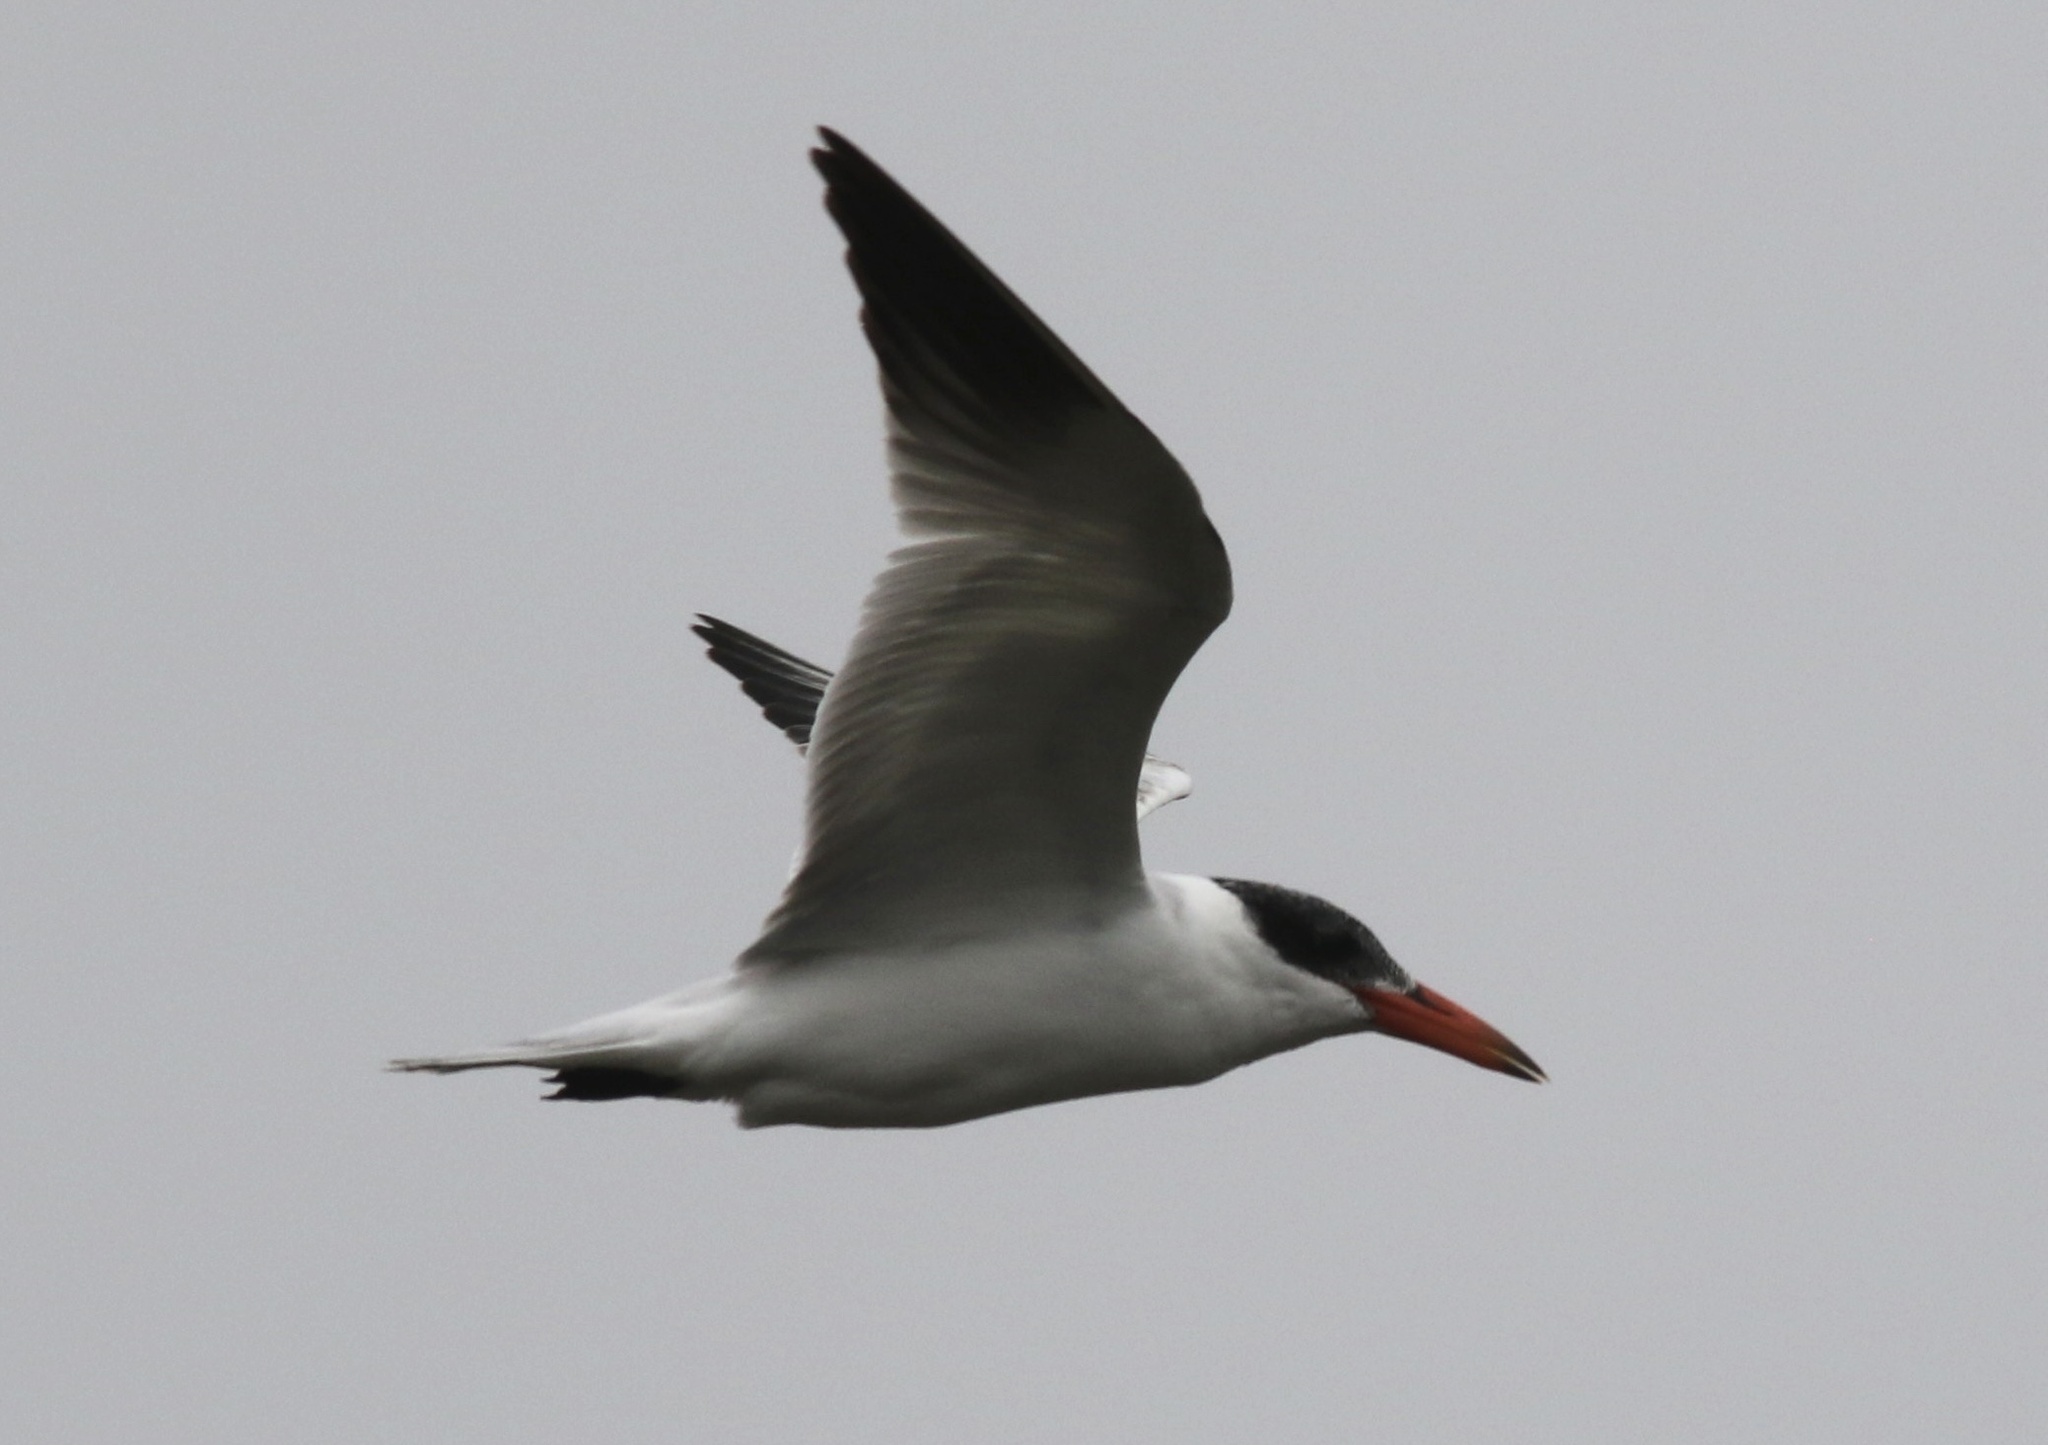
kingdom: Animalia
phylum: Chordata
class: Aves
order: Charadriiformes
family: Laridae
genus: Hydroprogne
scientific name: Hydroprogne caspia
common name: Caspian tern
